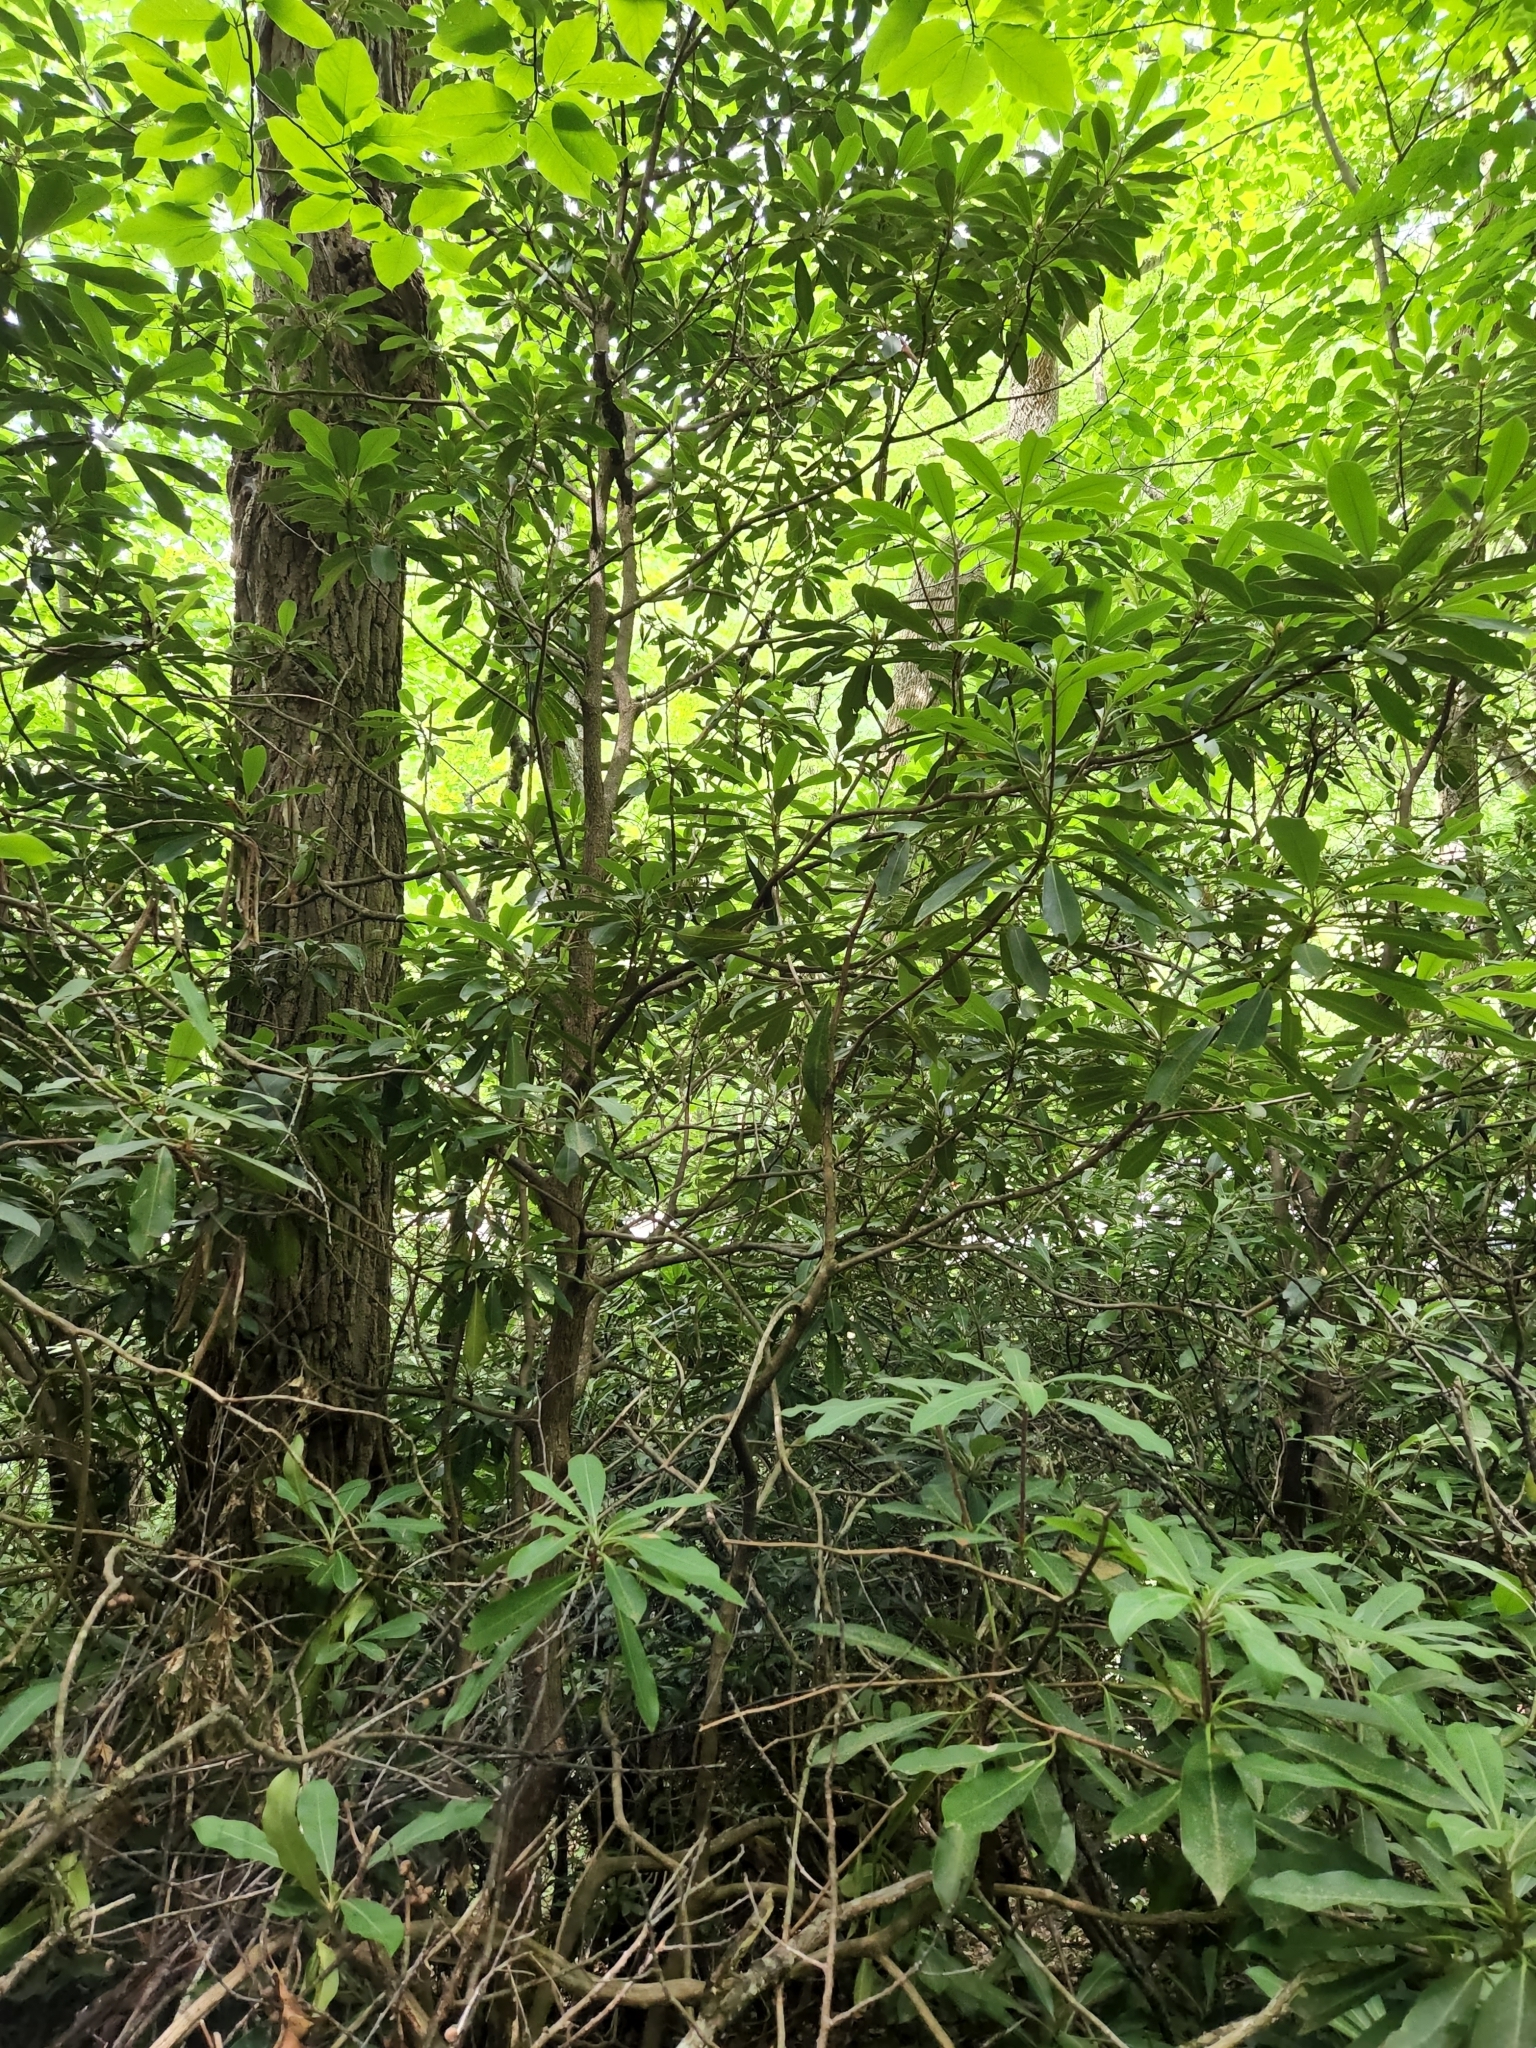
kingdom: Plantae
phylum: Tracheophyta
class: Magnoliopsida
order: Ericales
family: Ericaceae
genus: Rhododendron
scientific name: Rhododendron maximum
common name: Great rhododendron
